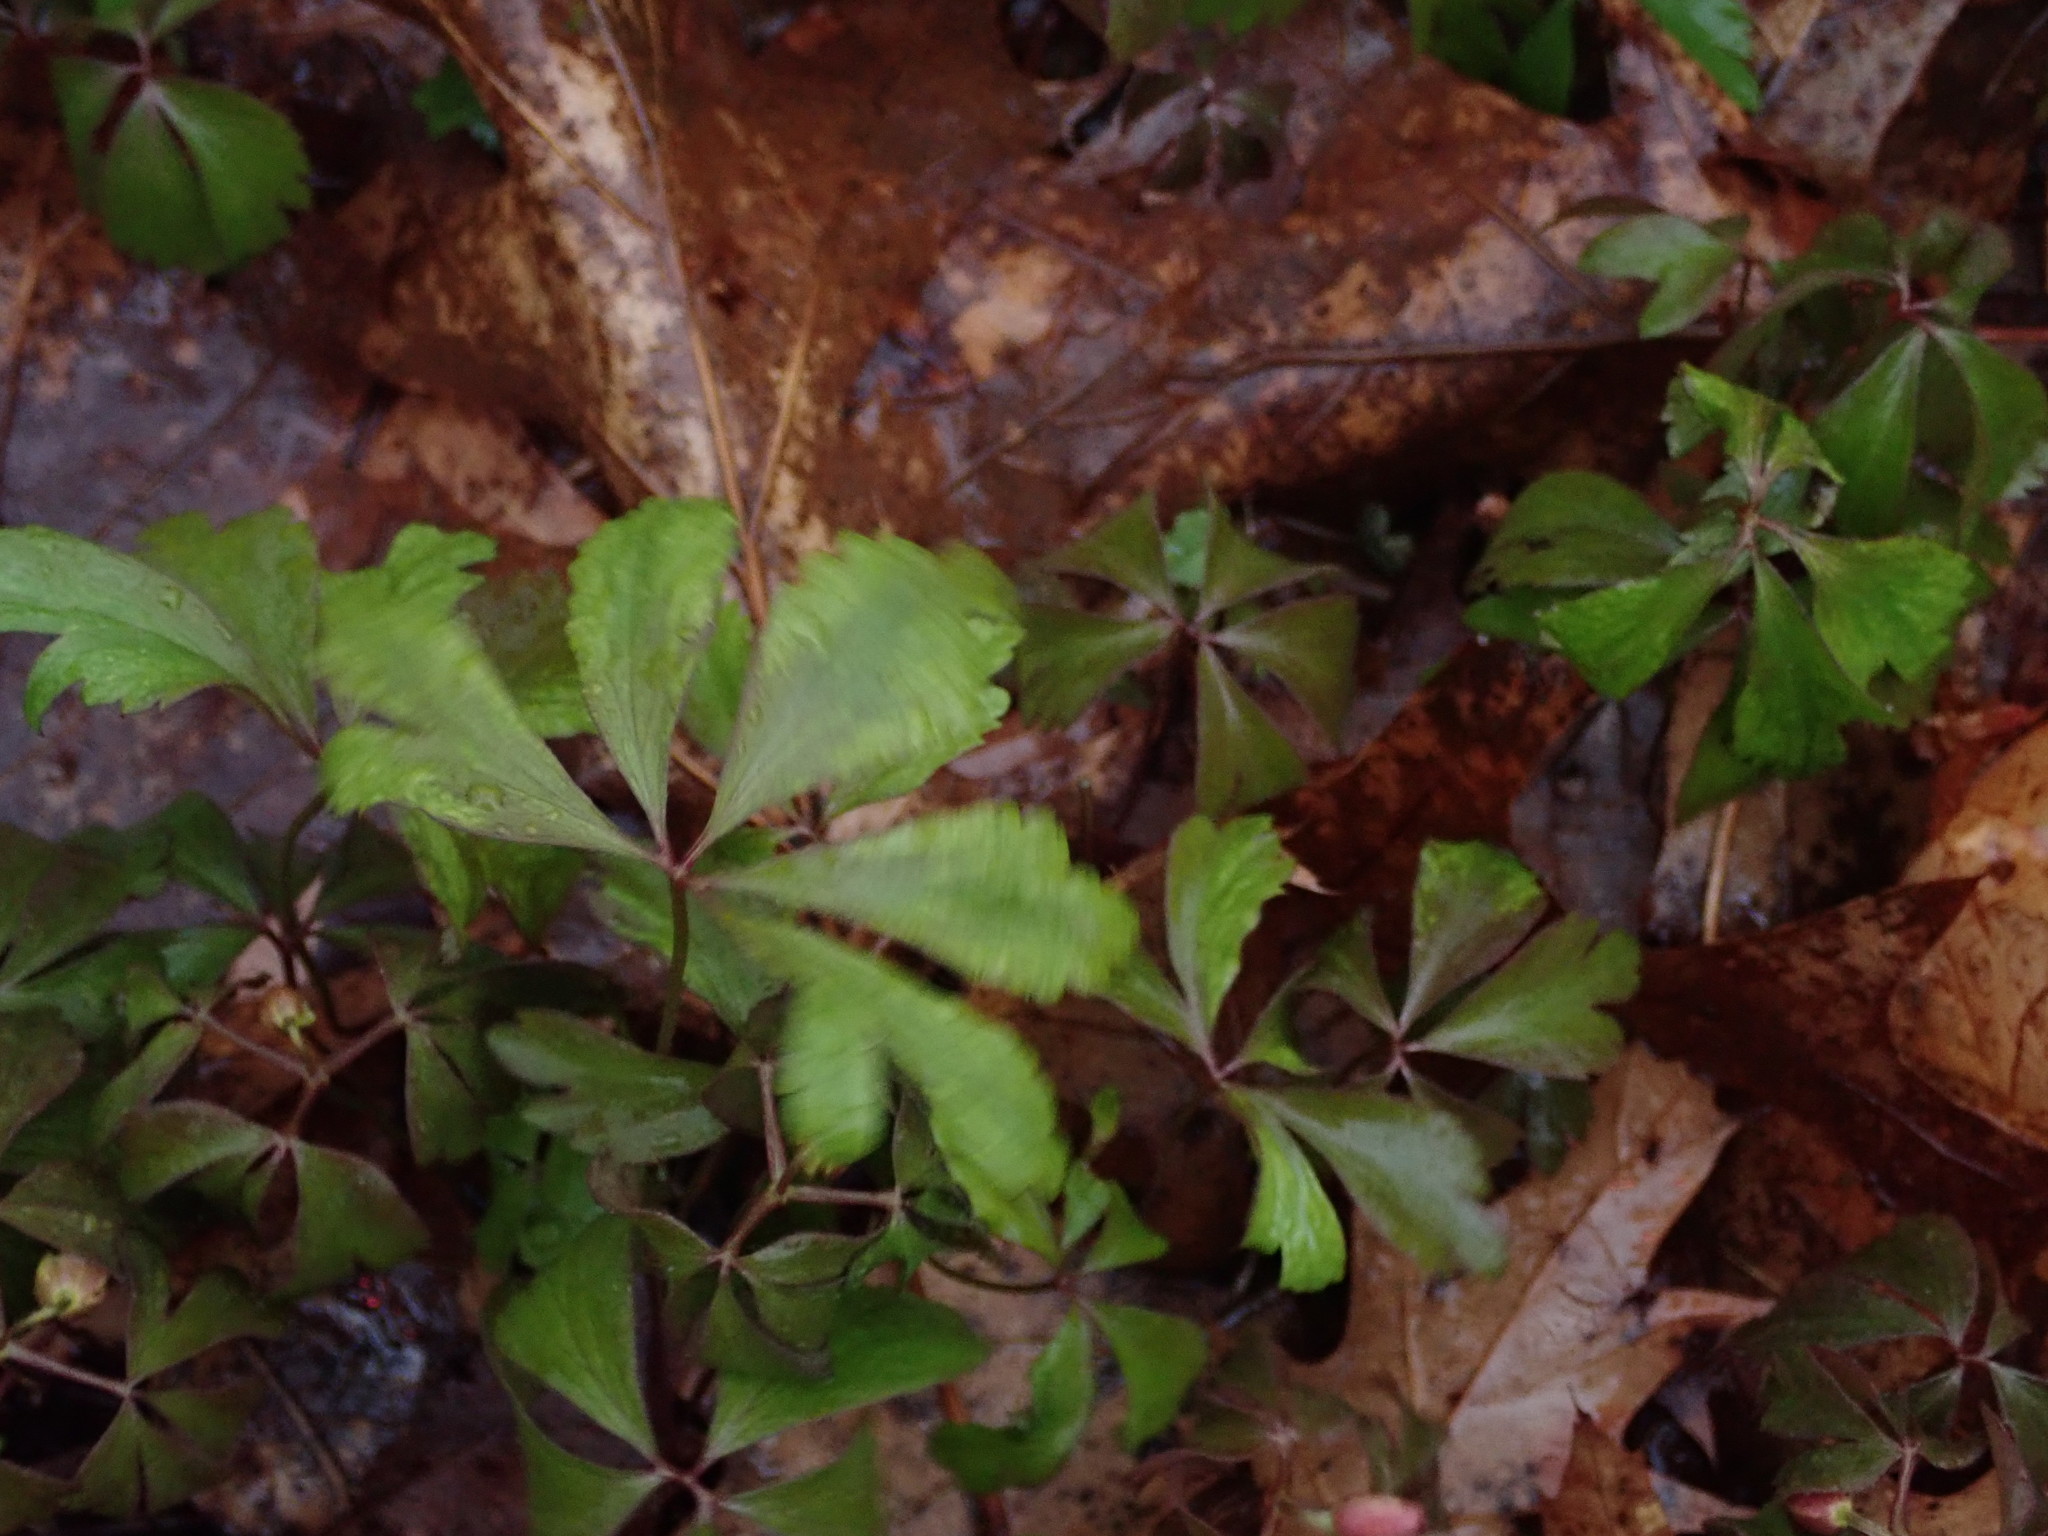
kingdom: Plantae
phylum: Tracheophyta
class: Magnoliopsida
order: Ranunculales
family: Ranunculaceae
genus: Anemone
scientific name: Anemone quinquefolia
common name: Wood anemone
